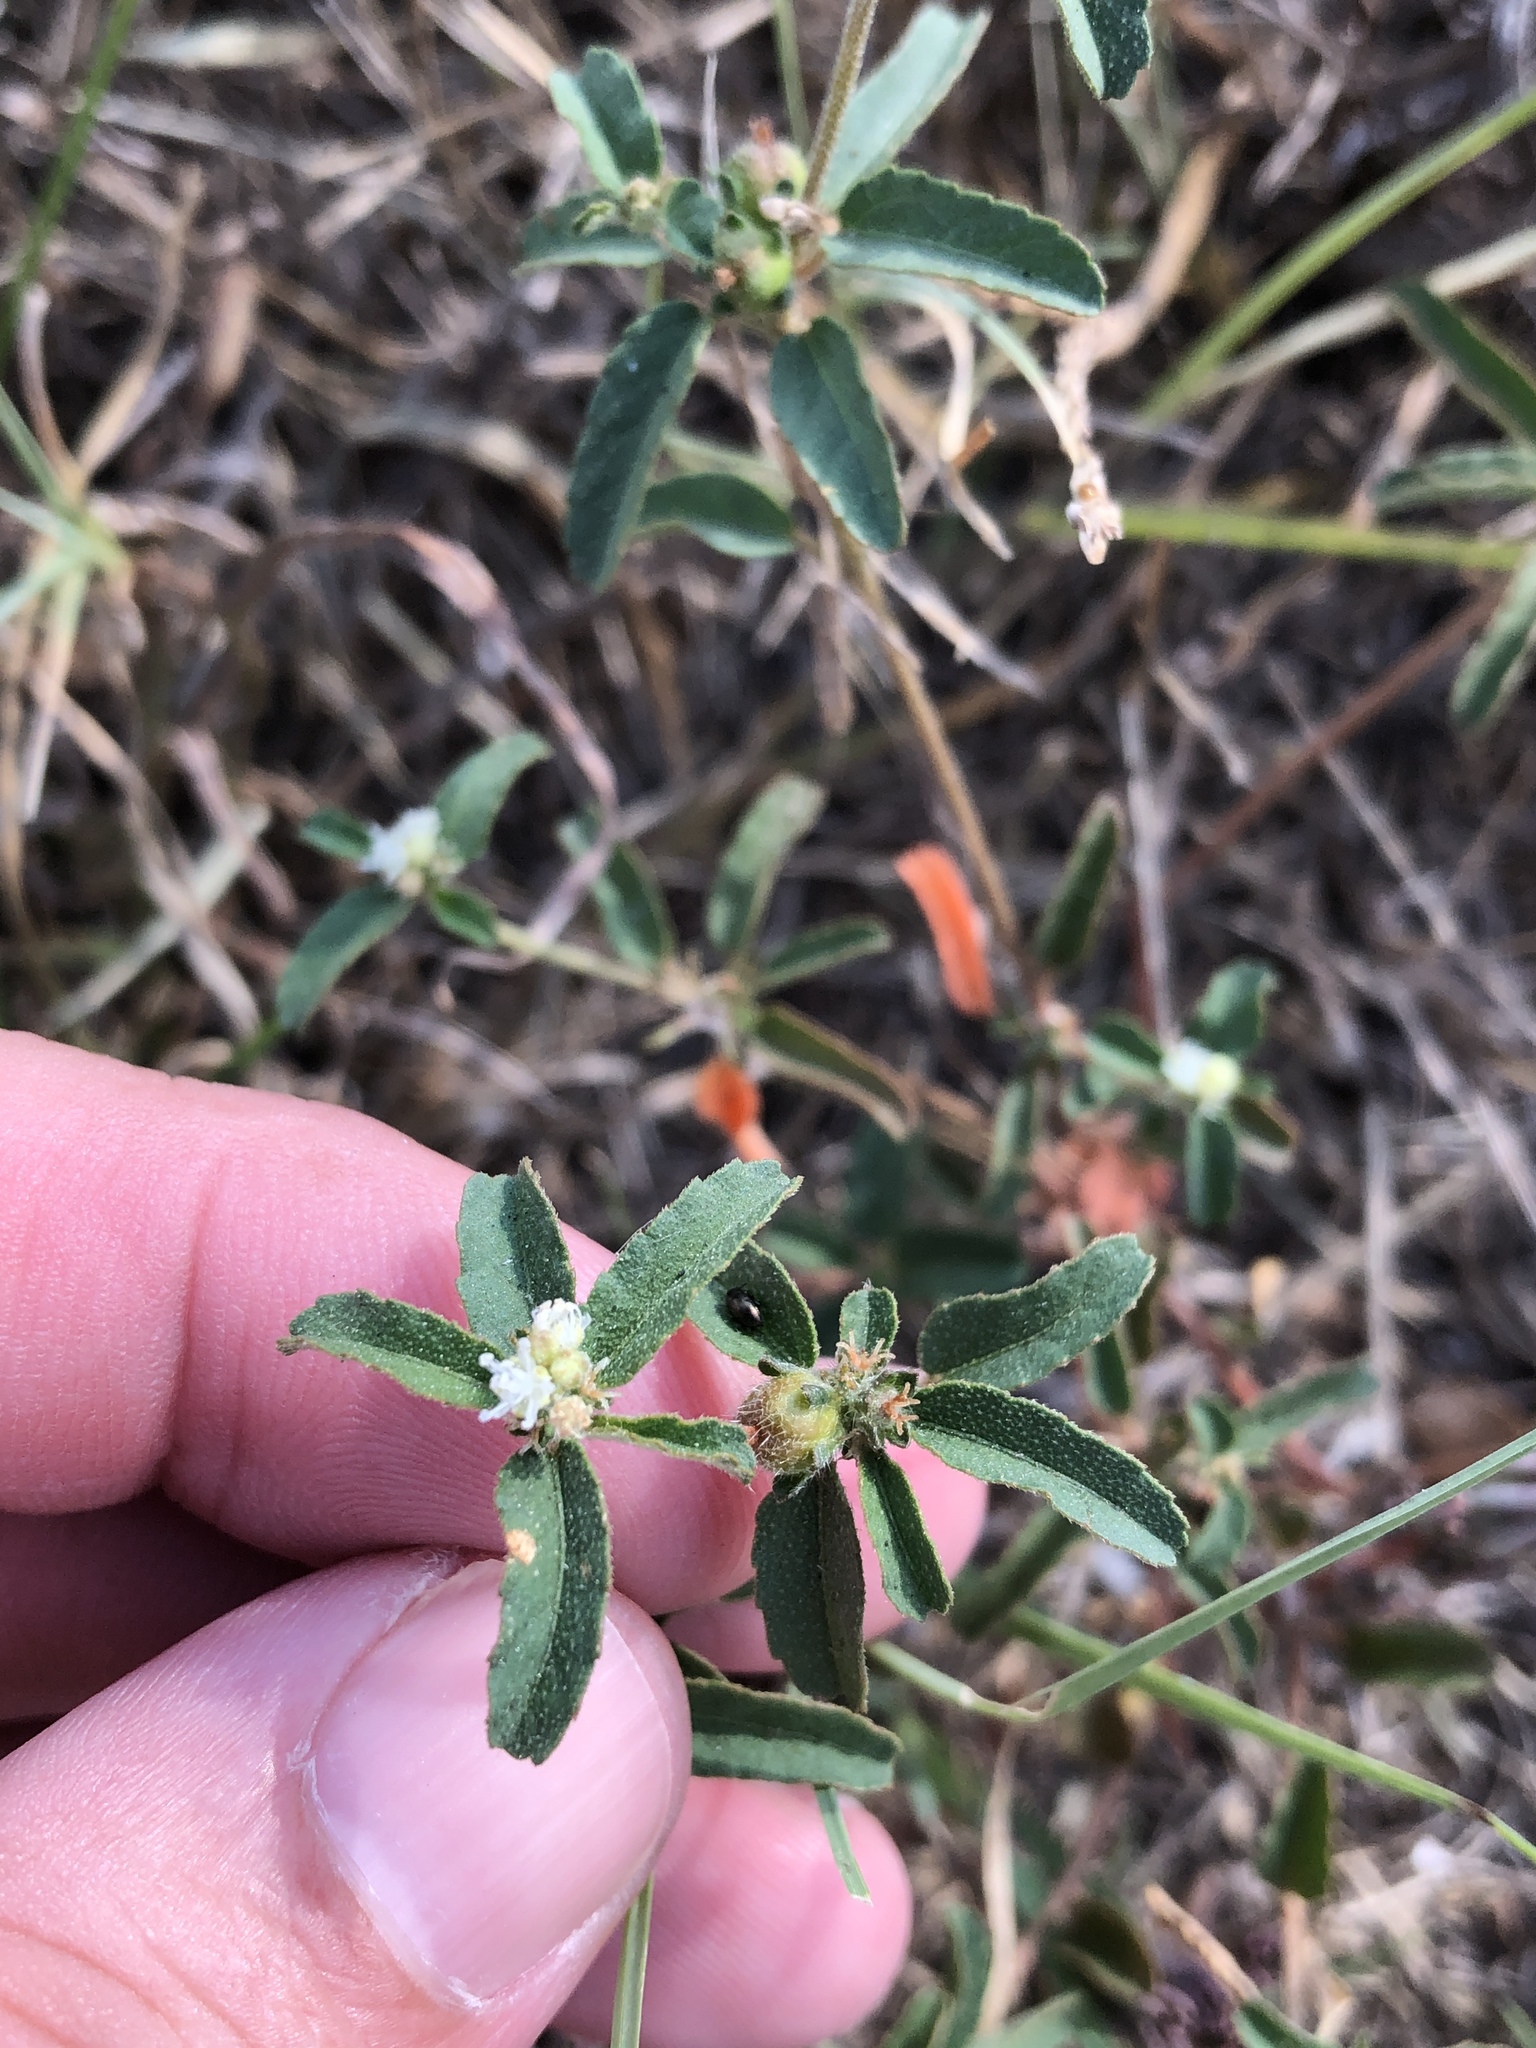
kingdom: Plantae
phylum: Tracheophyta
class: Magnoliopsida
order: Malpighiales
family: Euphorbiaceae
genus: Croton
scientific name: Croton glandulosus
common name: Tropic croton
